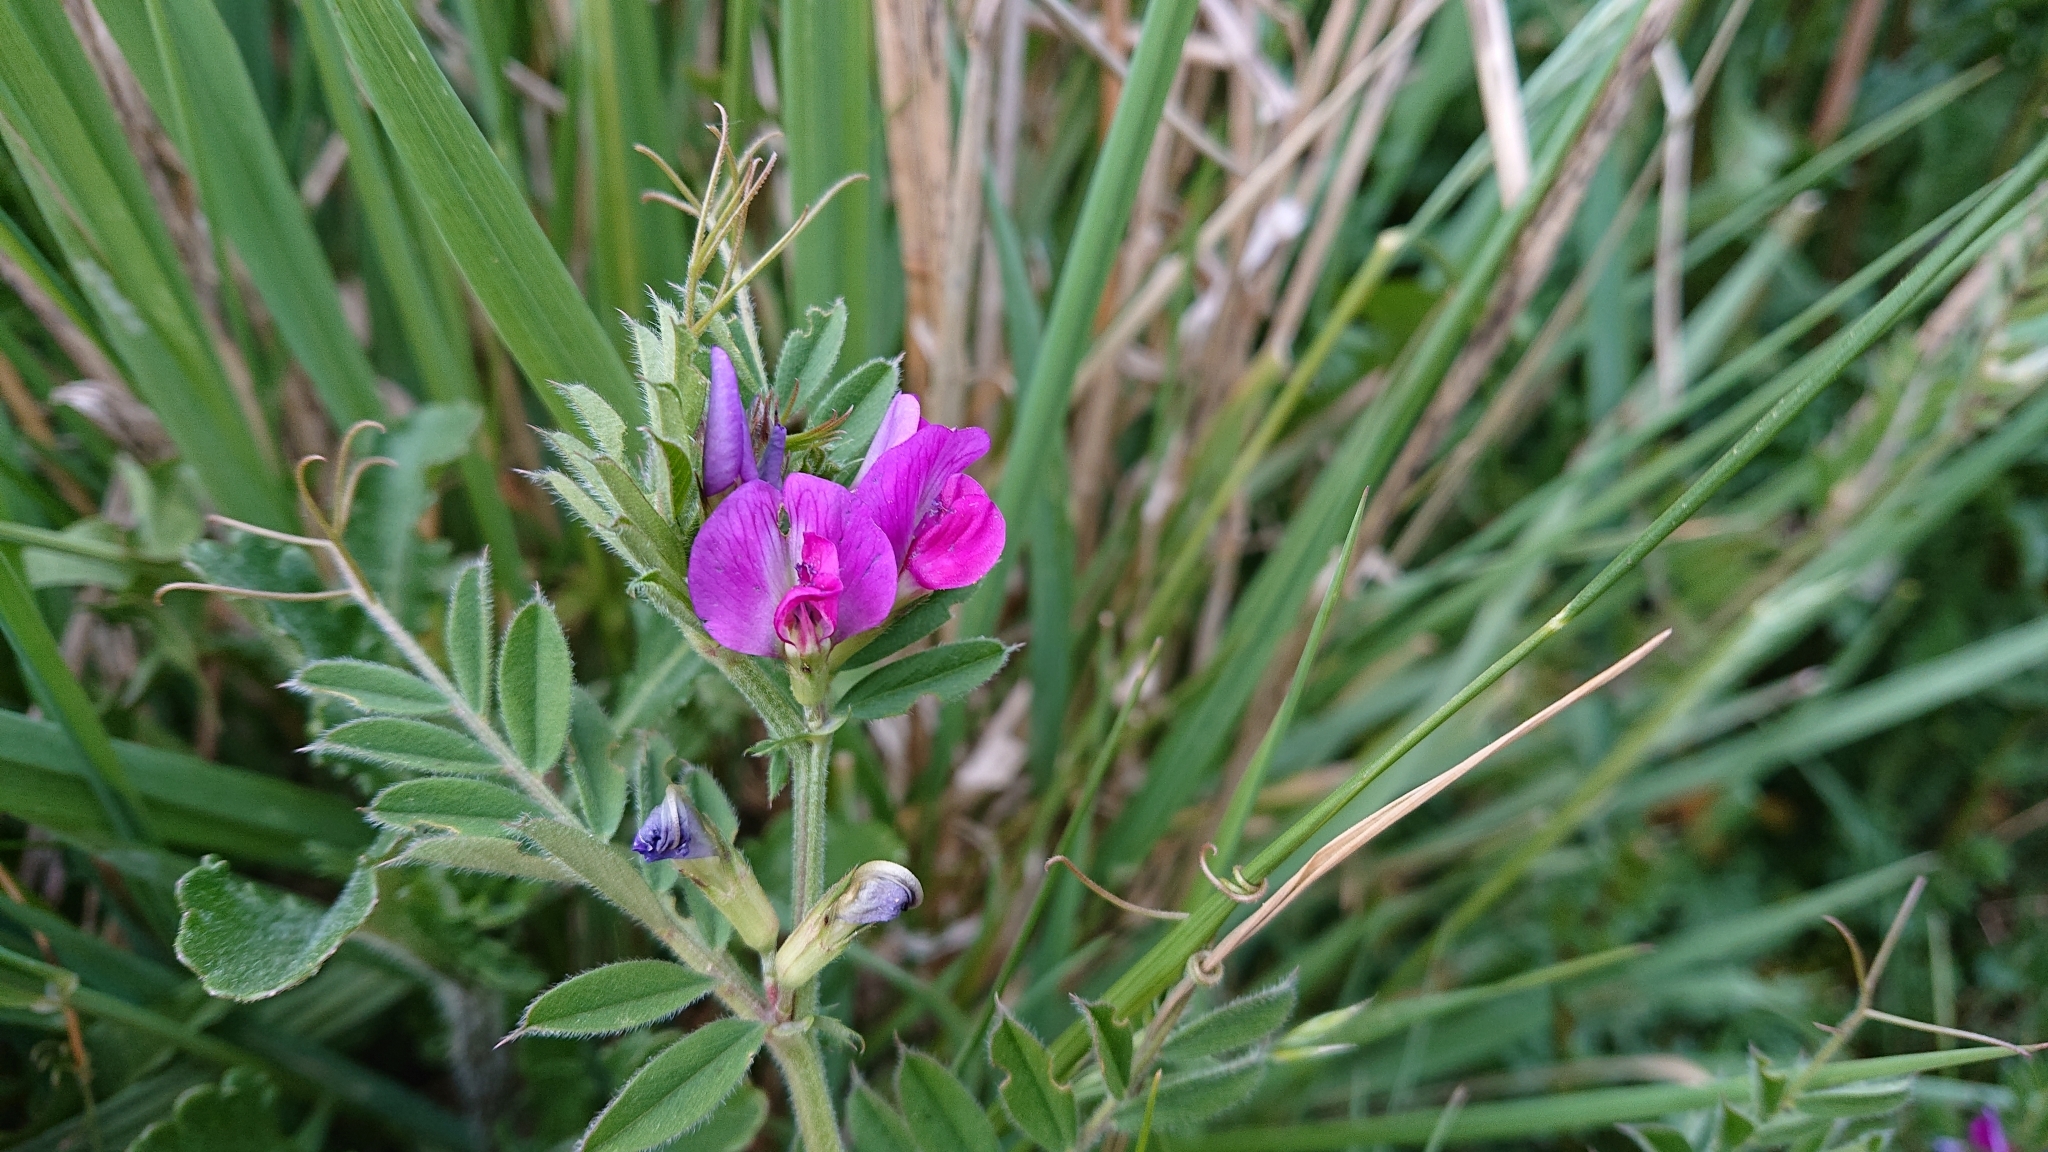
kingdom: Plantae
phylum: Tracheophyta
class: Magnoliopsida
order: Fabales
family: Fabaceae
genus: Vicia
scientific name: Vicia sativa
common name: Garden vetch
